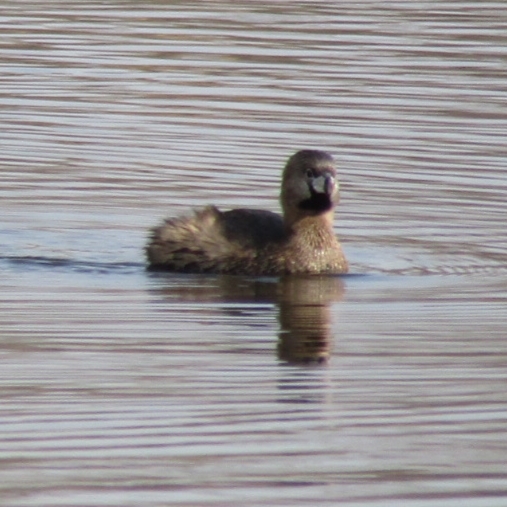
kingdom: Animalia
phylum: Chordata
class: Aves
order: Podicipediformes
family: Podicipedidae
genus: Podilymbus
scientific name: Podilymbus podiceps
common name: Pied-billed grebe
